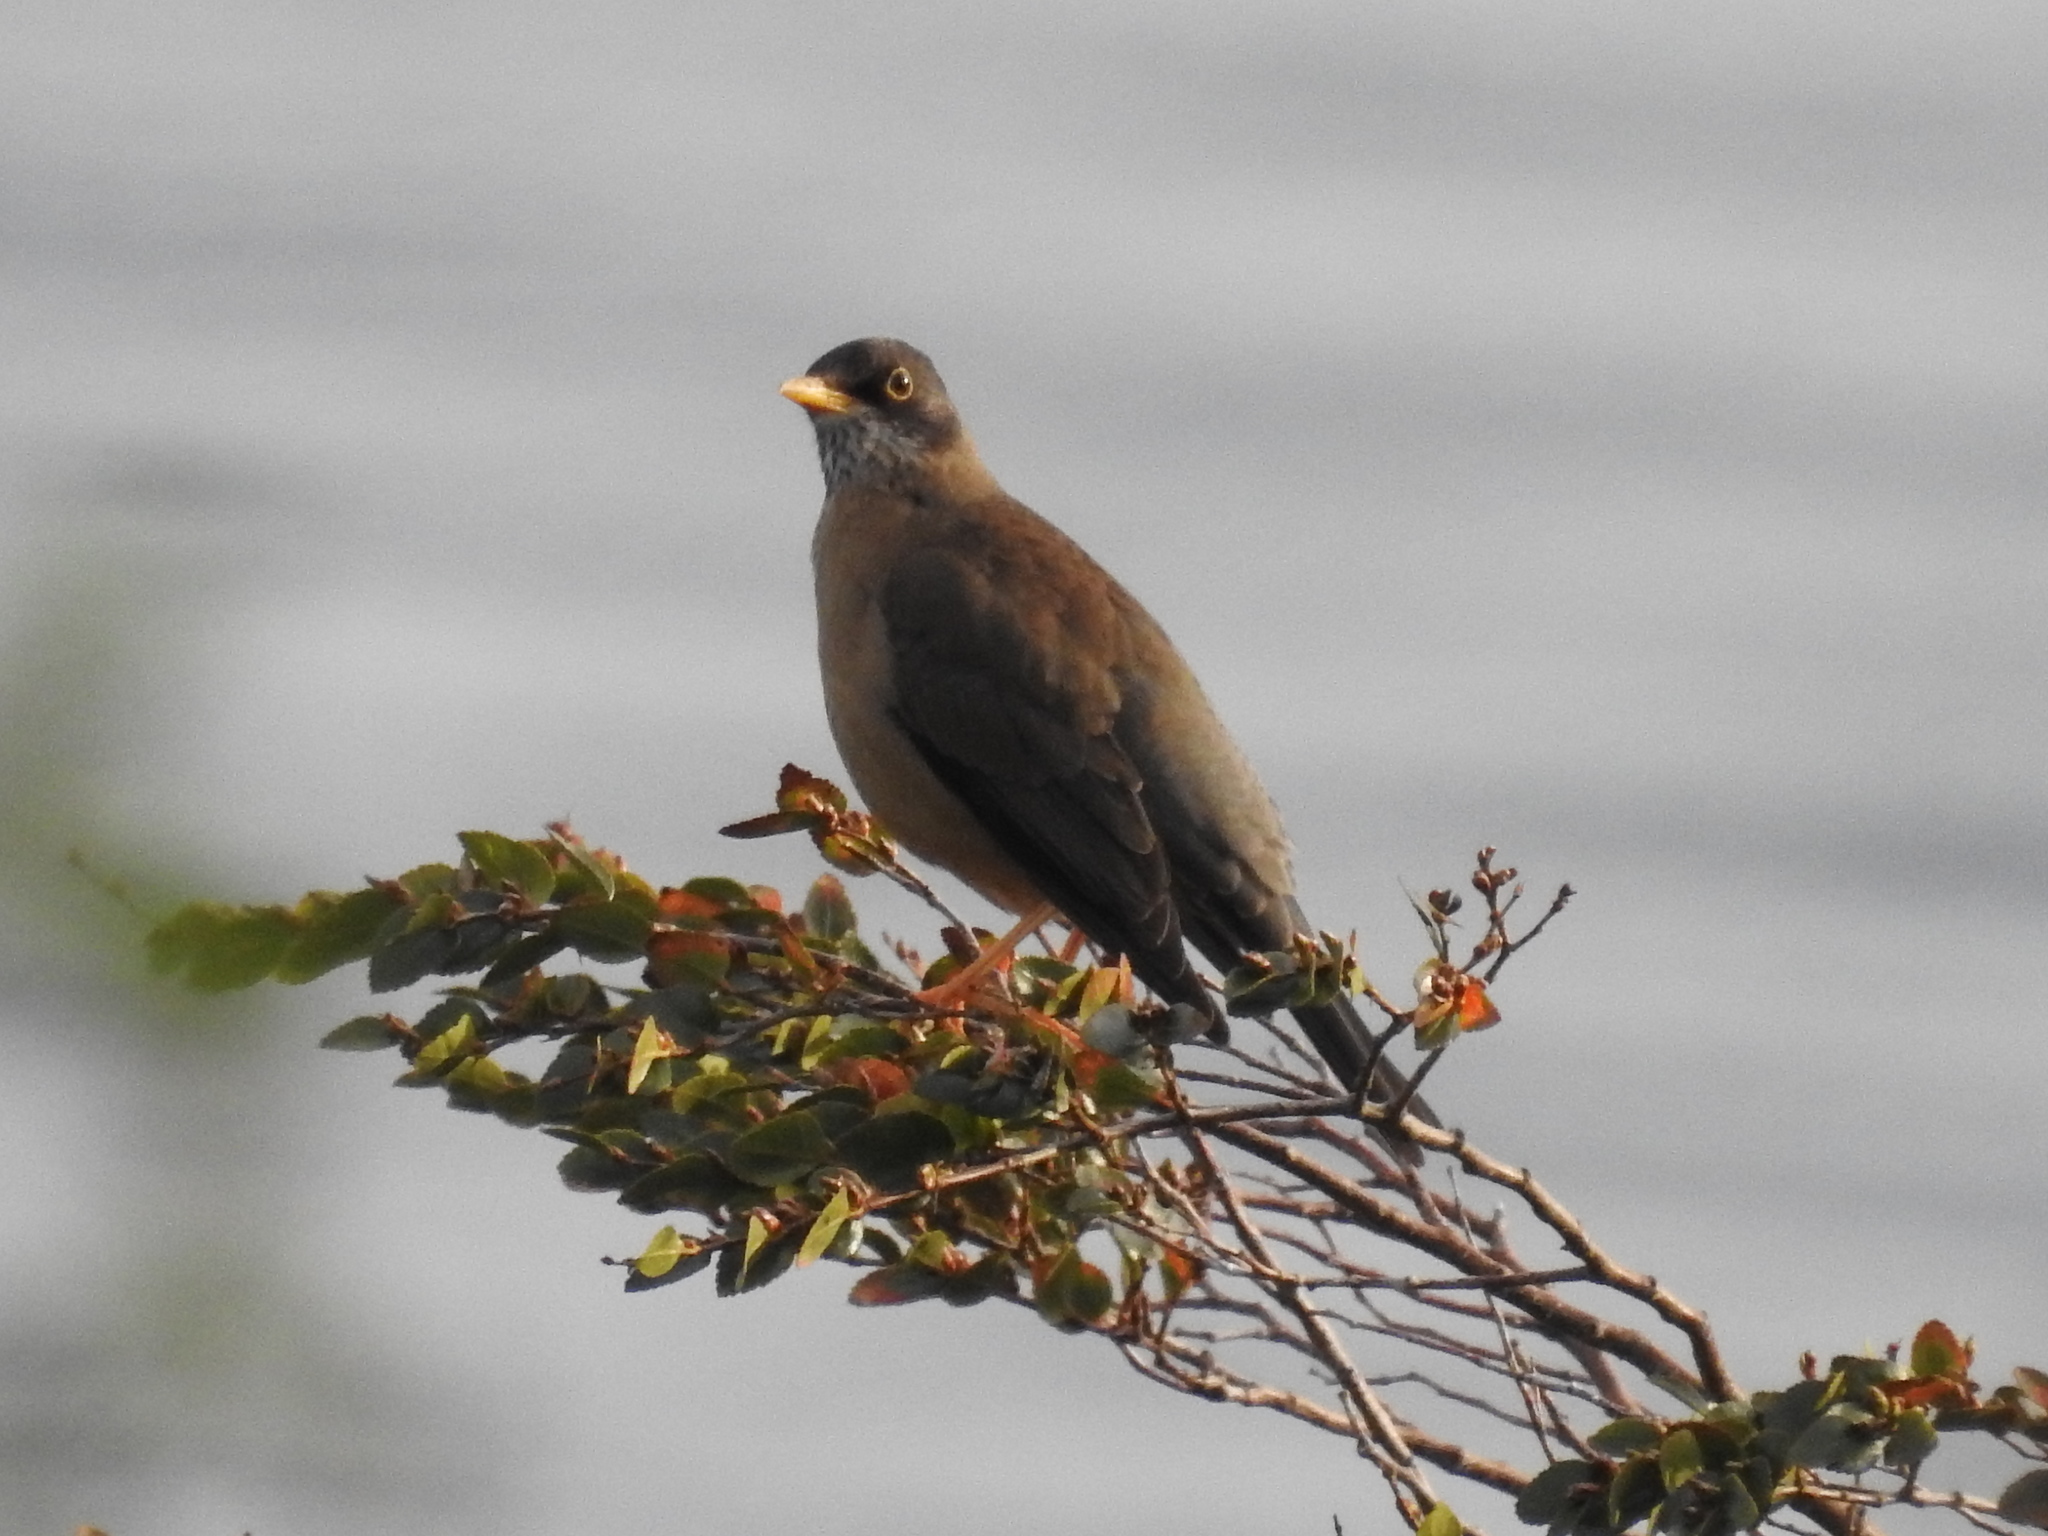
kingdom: Animalia
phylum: Chordata
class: Aves
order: Passeriformes
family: Turdidae
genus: Turdus
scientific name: Turdus falcklandii
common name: Austral thrush
